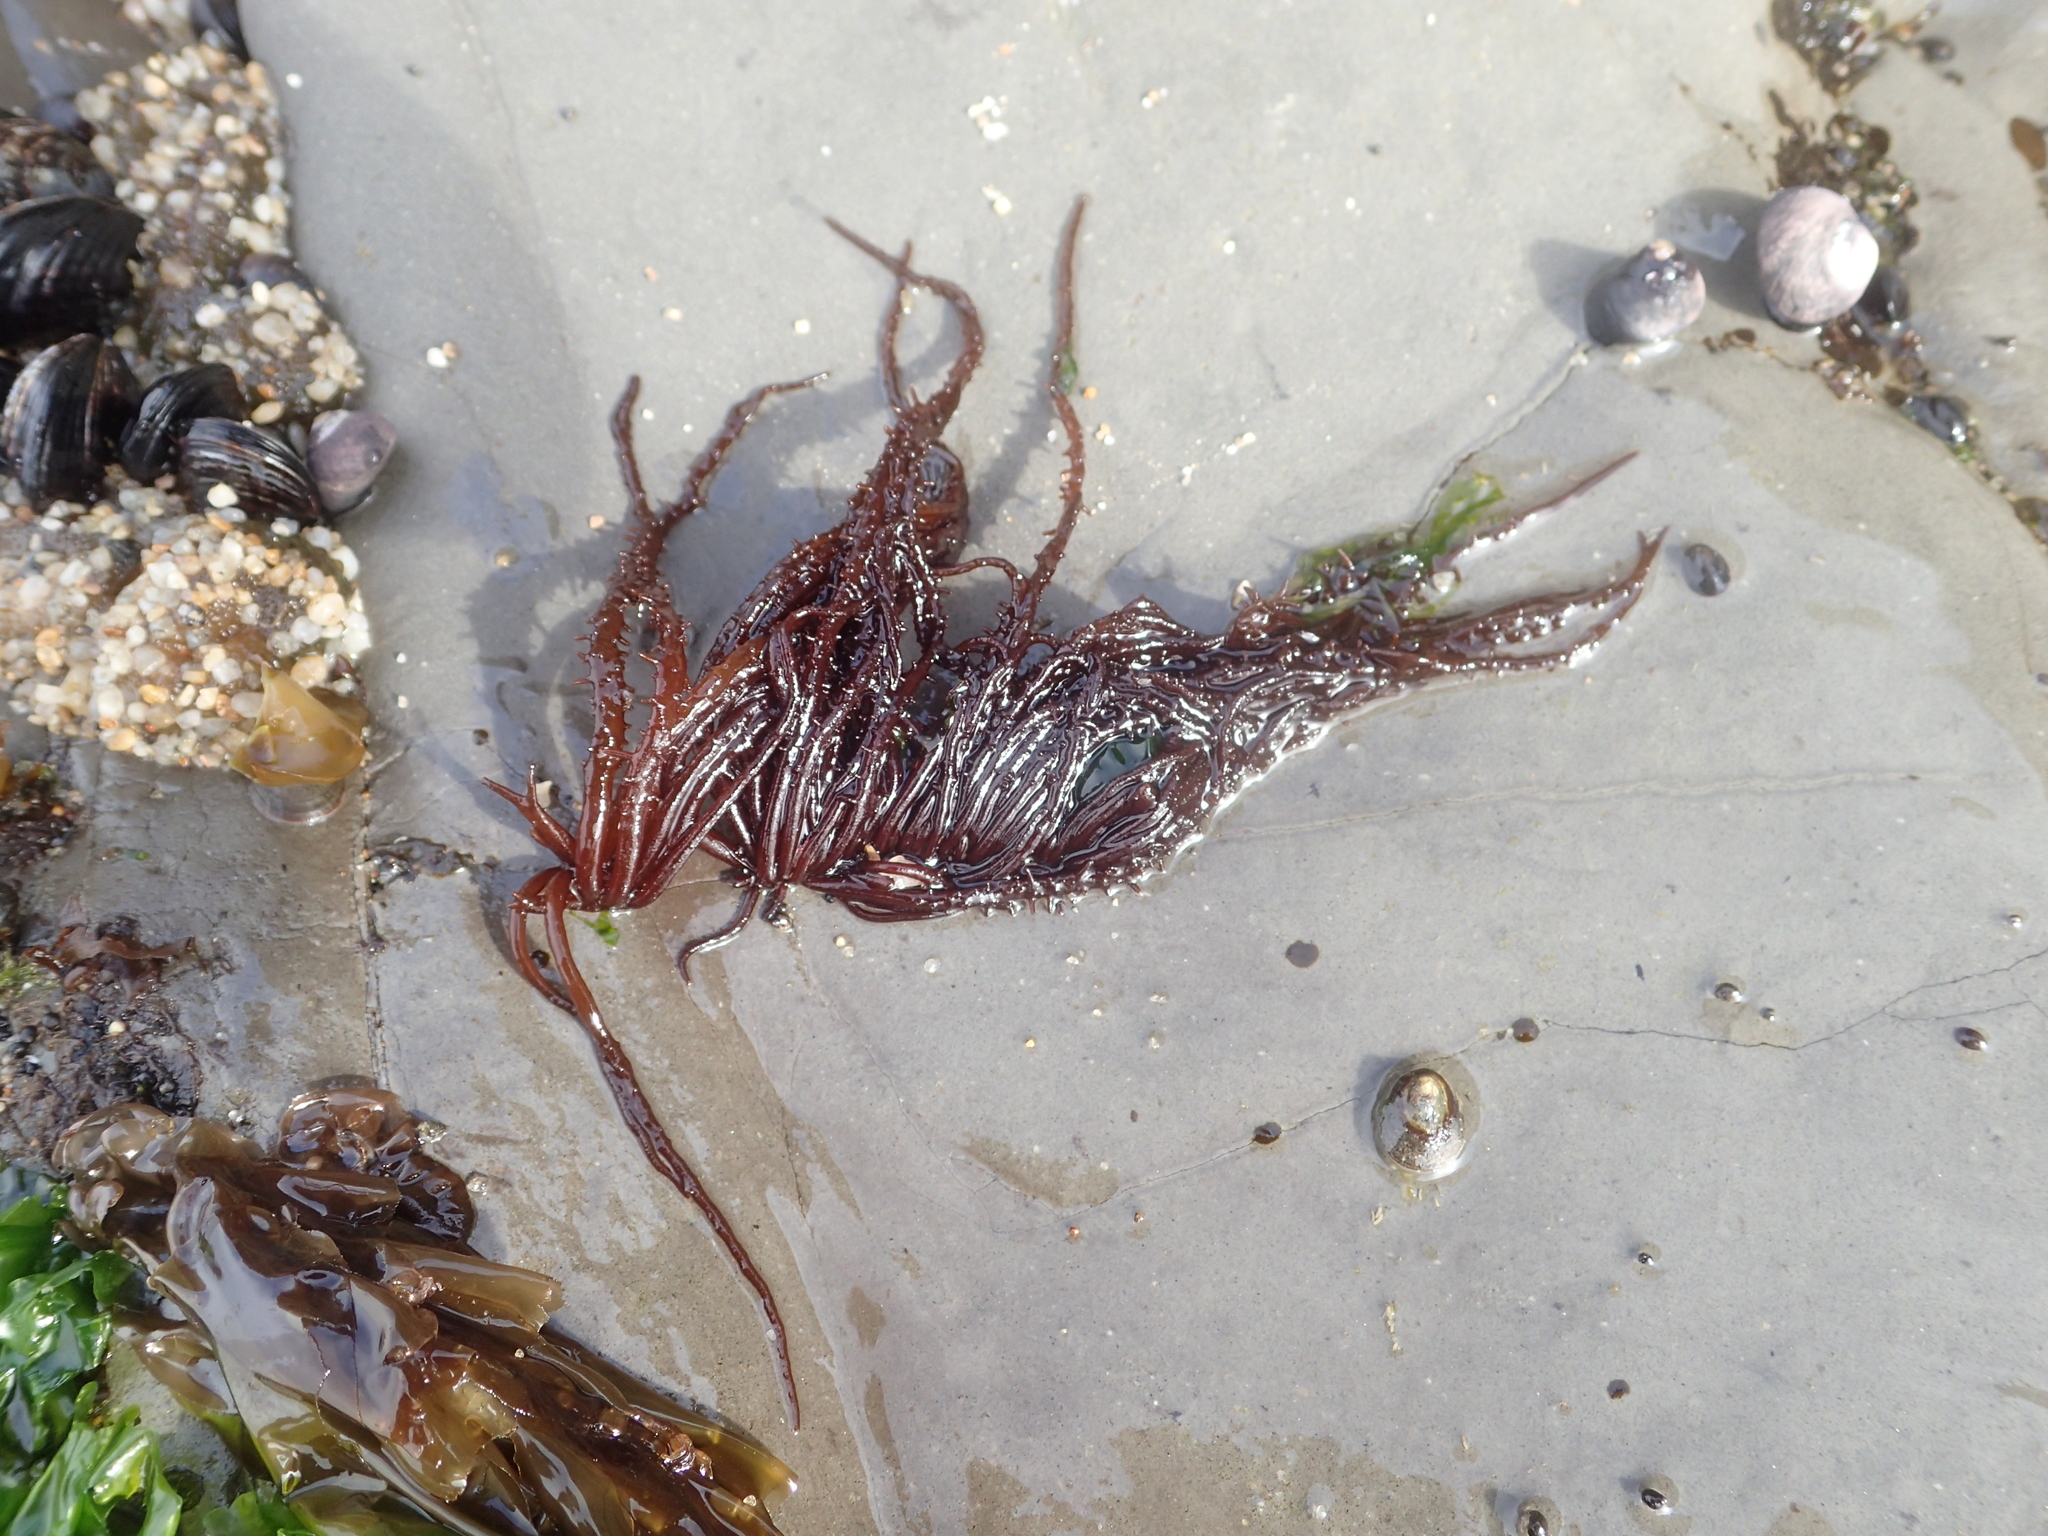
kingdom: Plantae
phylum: Rhodophyta
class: Florideophyceae
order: Nemaliales
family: Liagoraceae
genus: Cumagloia
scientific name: Cumagloia andersonii
